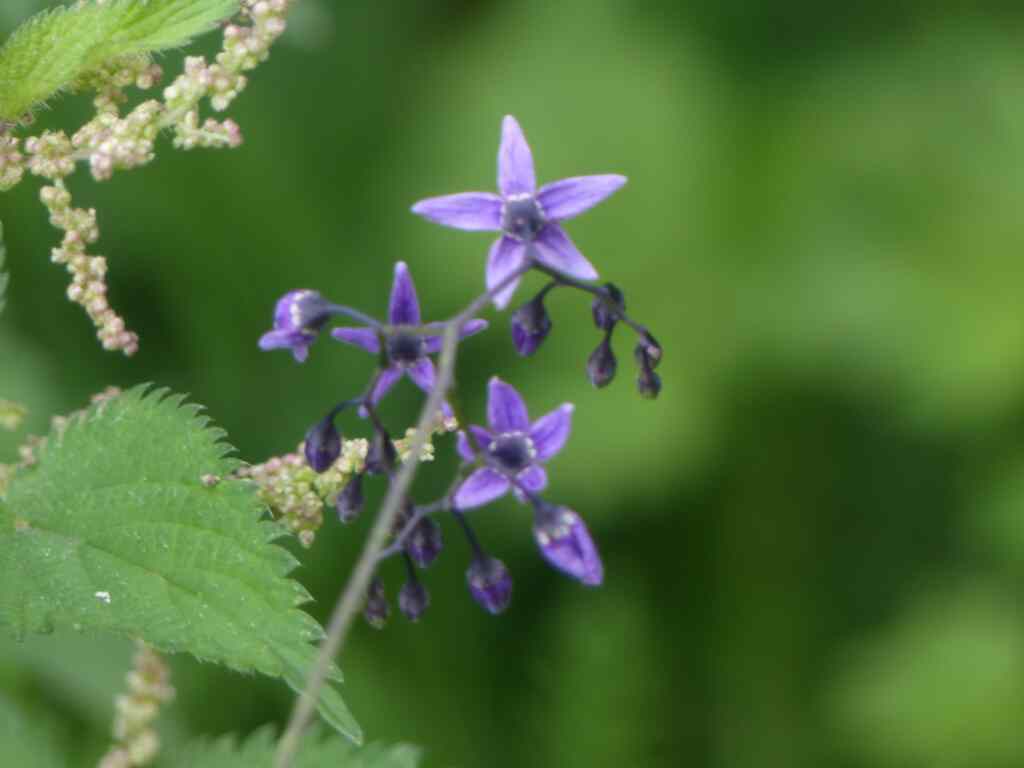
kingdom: Plantae
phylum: Tracheophyta
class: Magnoliopsida
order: Solanales
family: Solanaceae
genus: Solanum
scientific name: Solanum dulcamara
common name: Climbing nightshade
